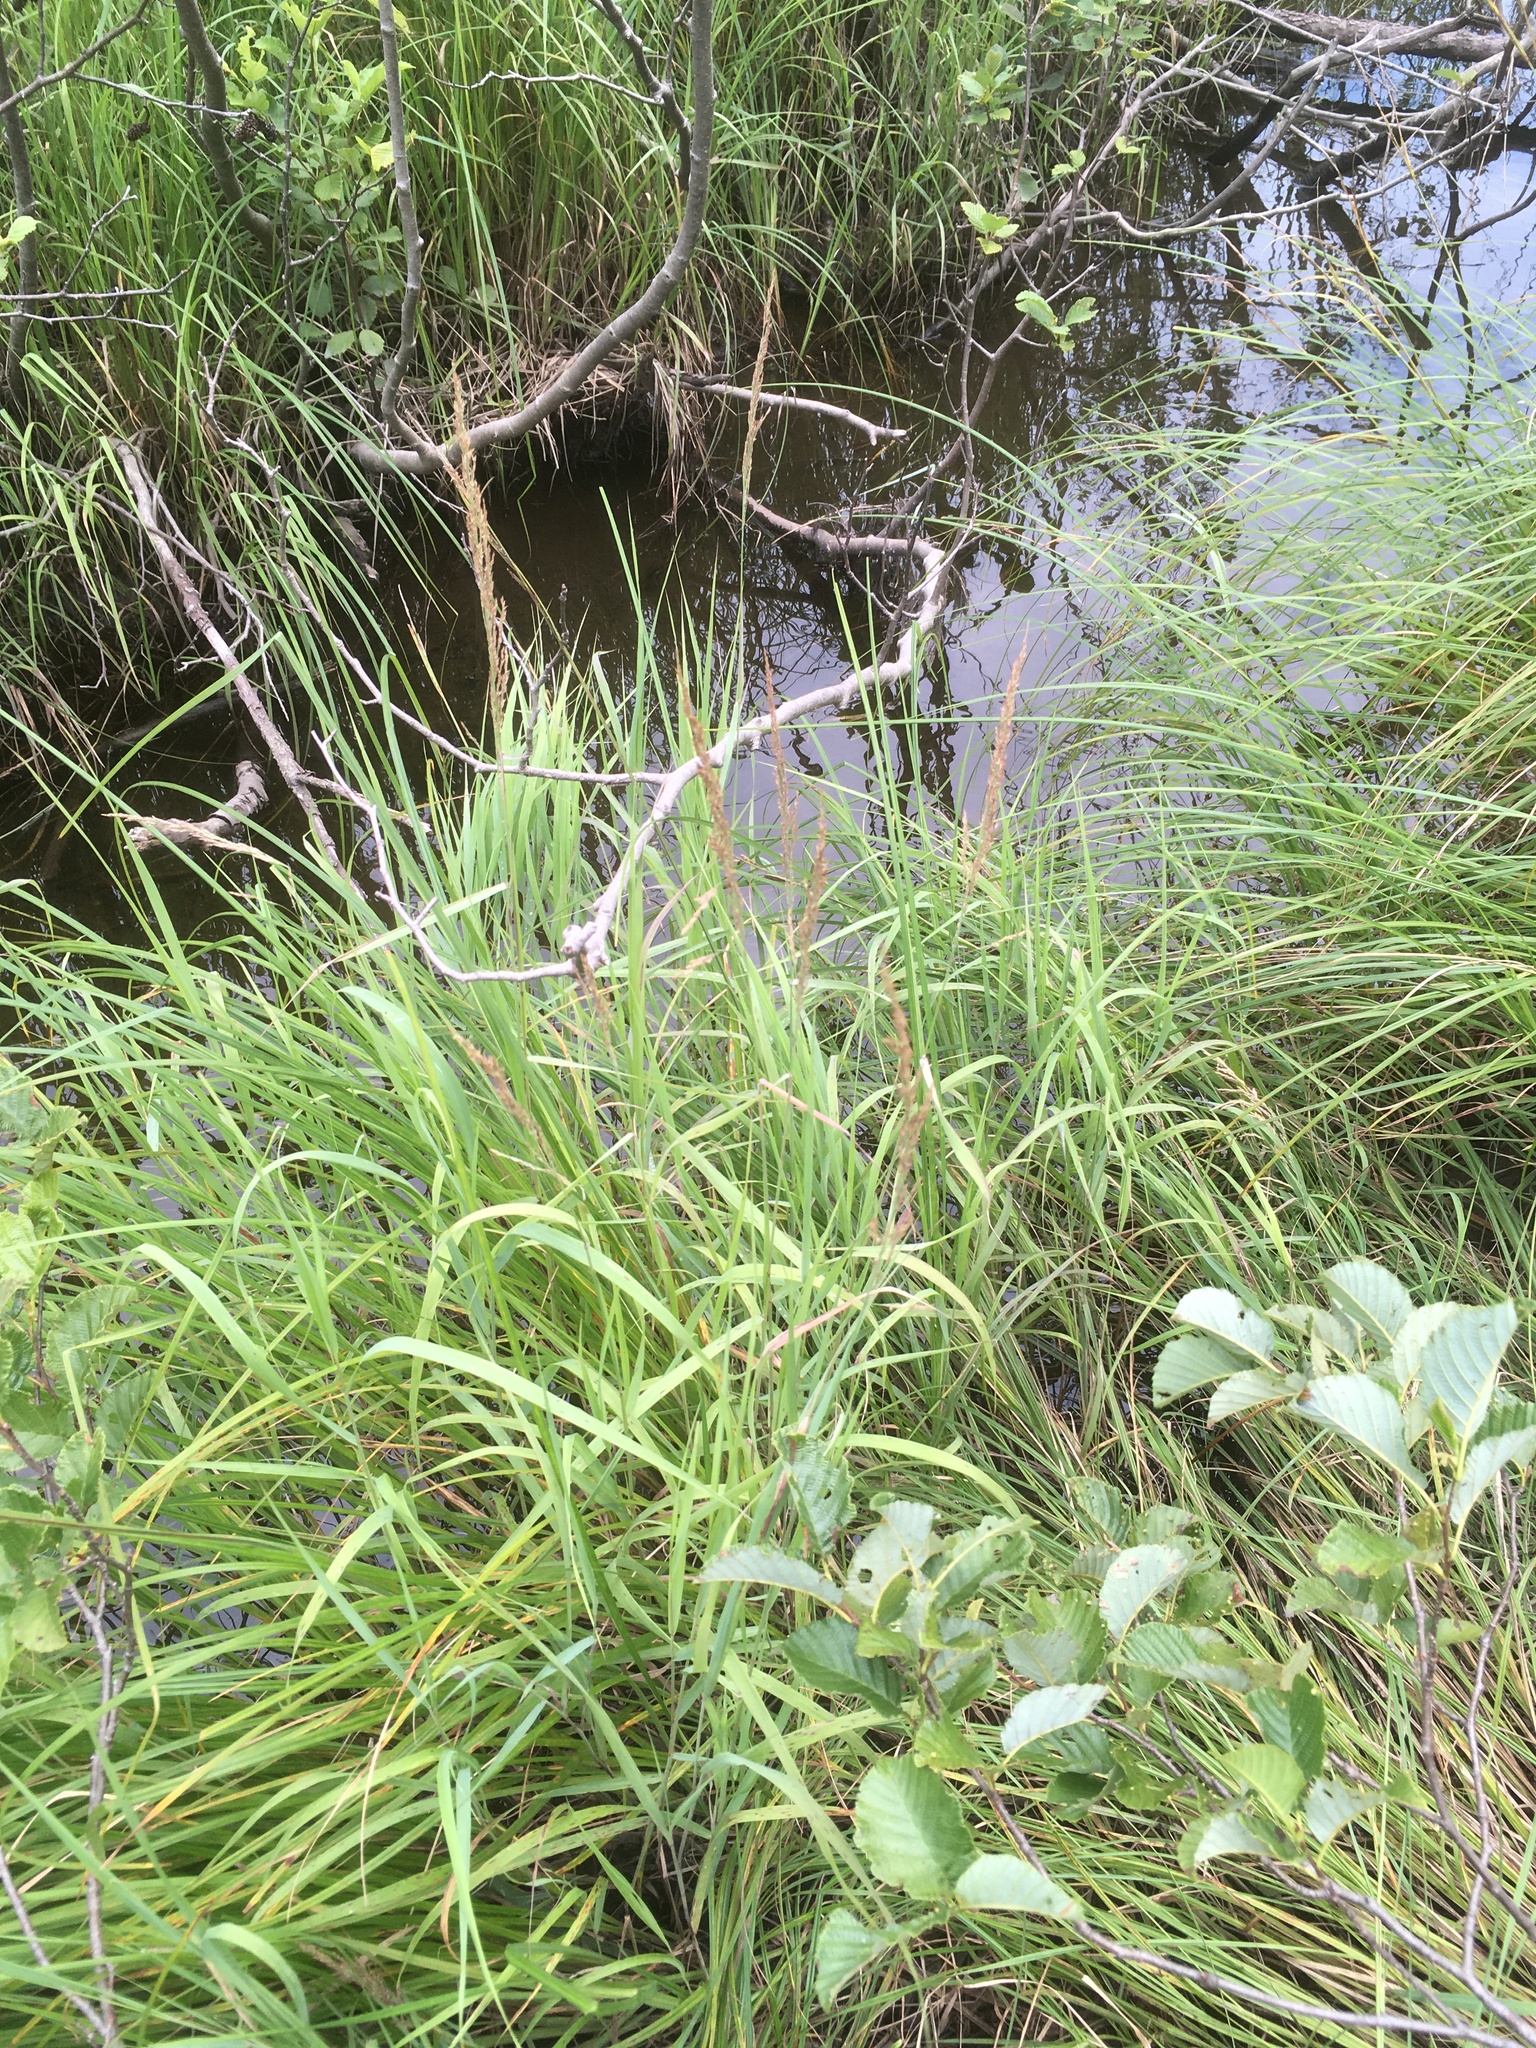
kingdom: Plantae
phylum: Tracheophyta
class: Liliopsida
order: Poales
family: Poaceae
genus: Calamagrostis
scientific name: Calamagrostis canadensis
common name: Canada bluejoint
